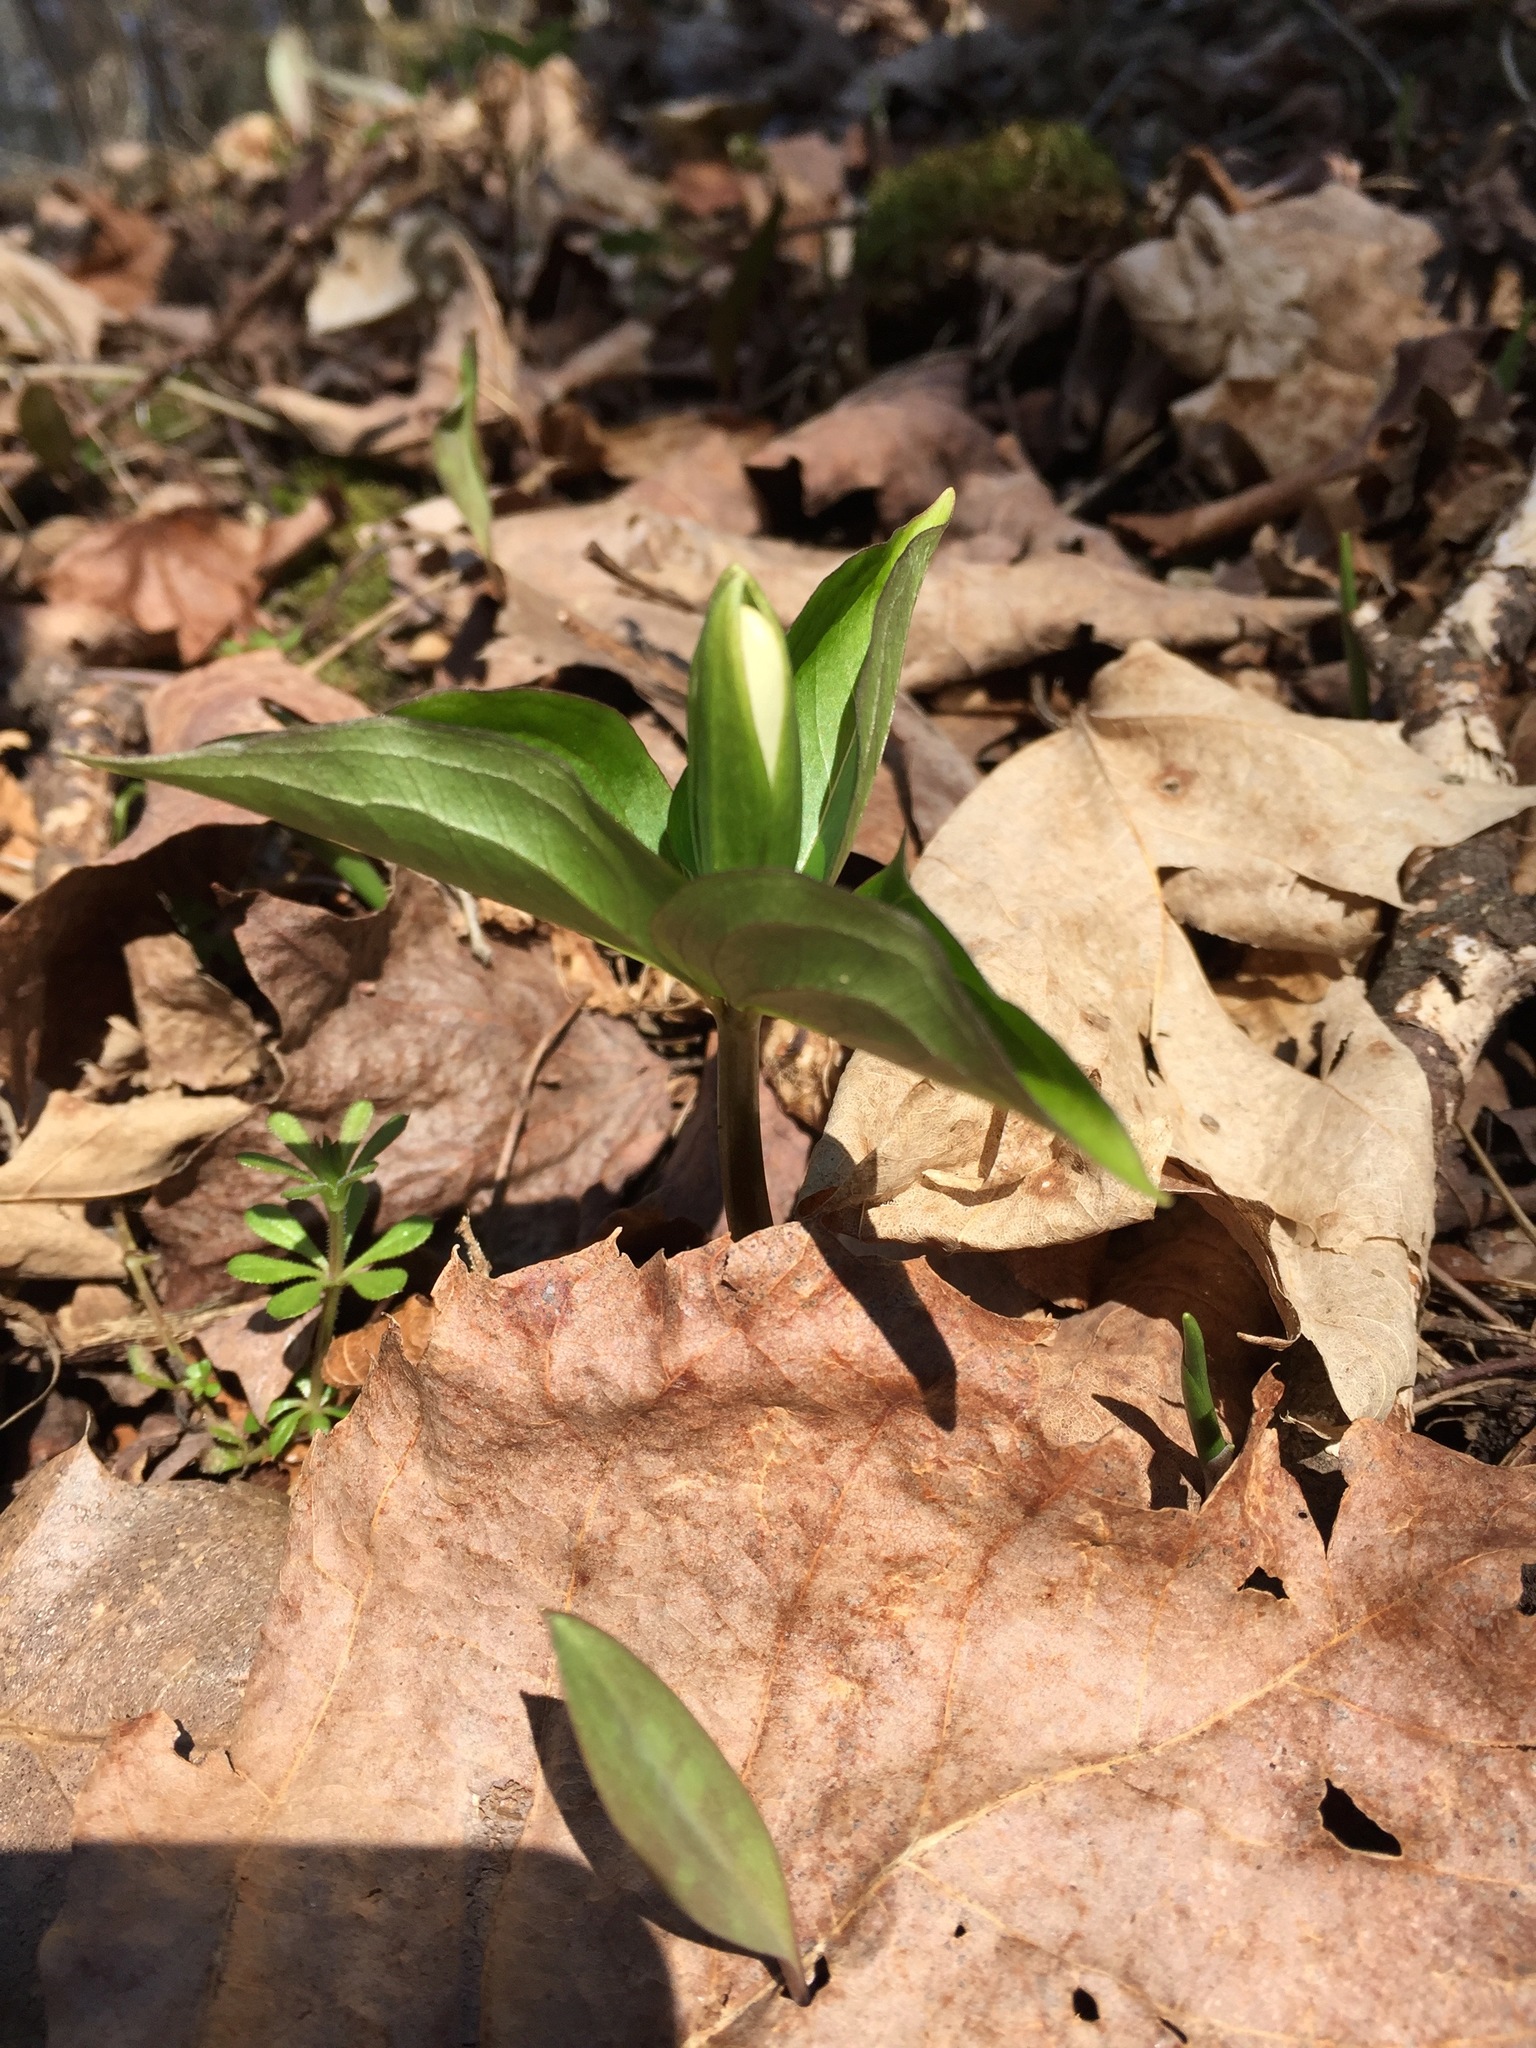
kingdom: Plantae
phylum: Tracheophyta
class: Liliopsida
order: Liliales
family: Melanthiaceae
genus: Trillium
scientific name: Trillium grandiflorum
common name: Great white trillium
